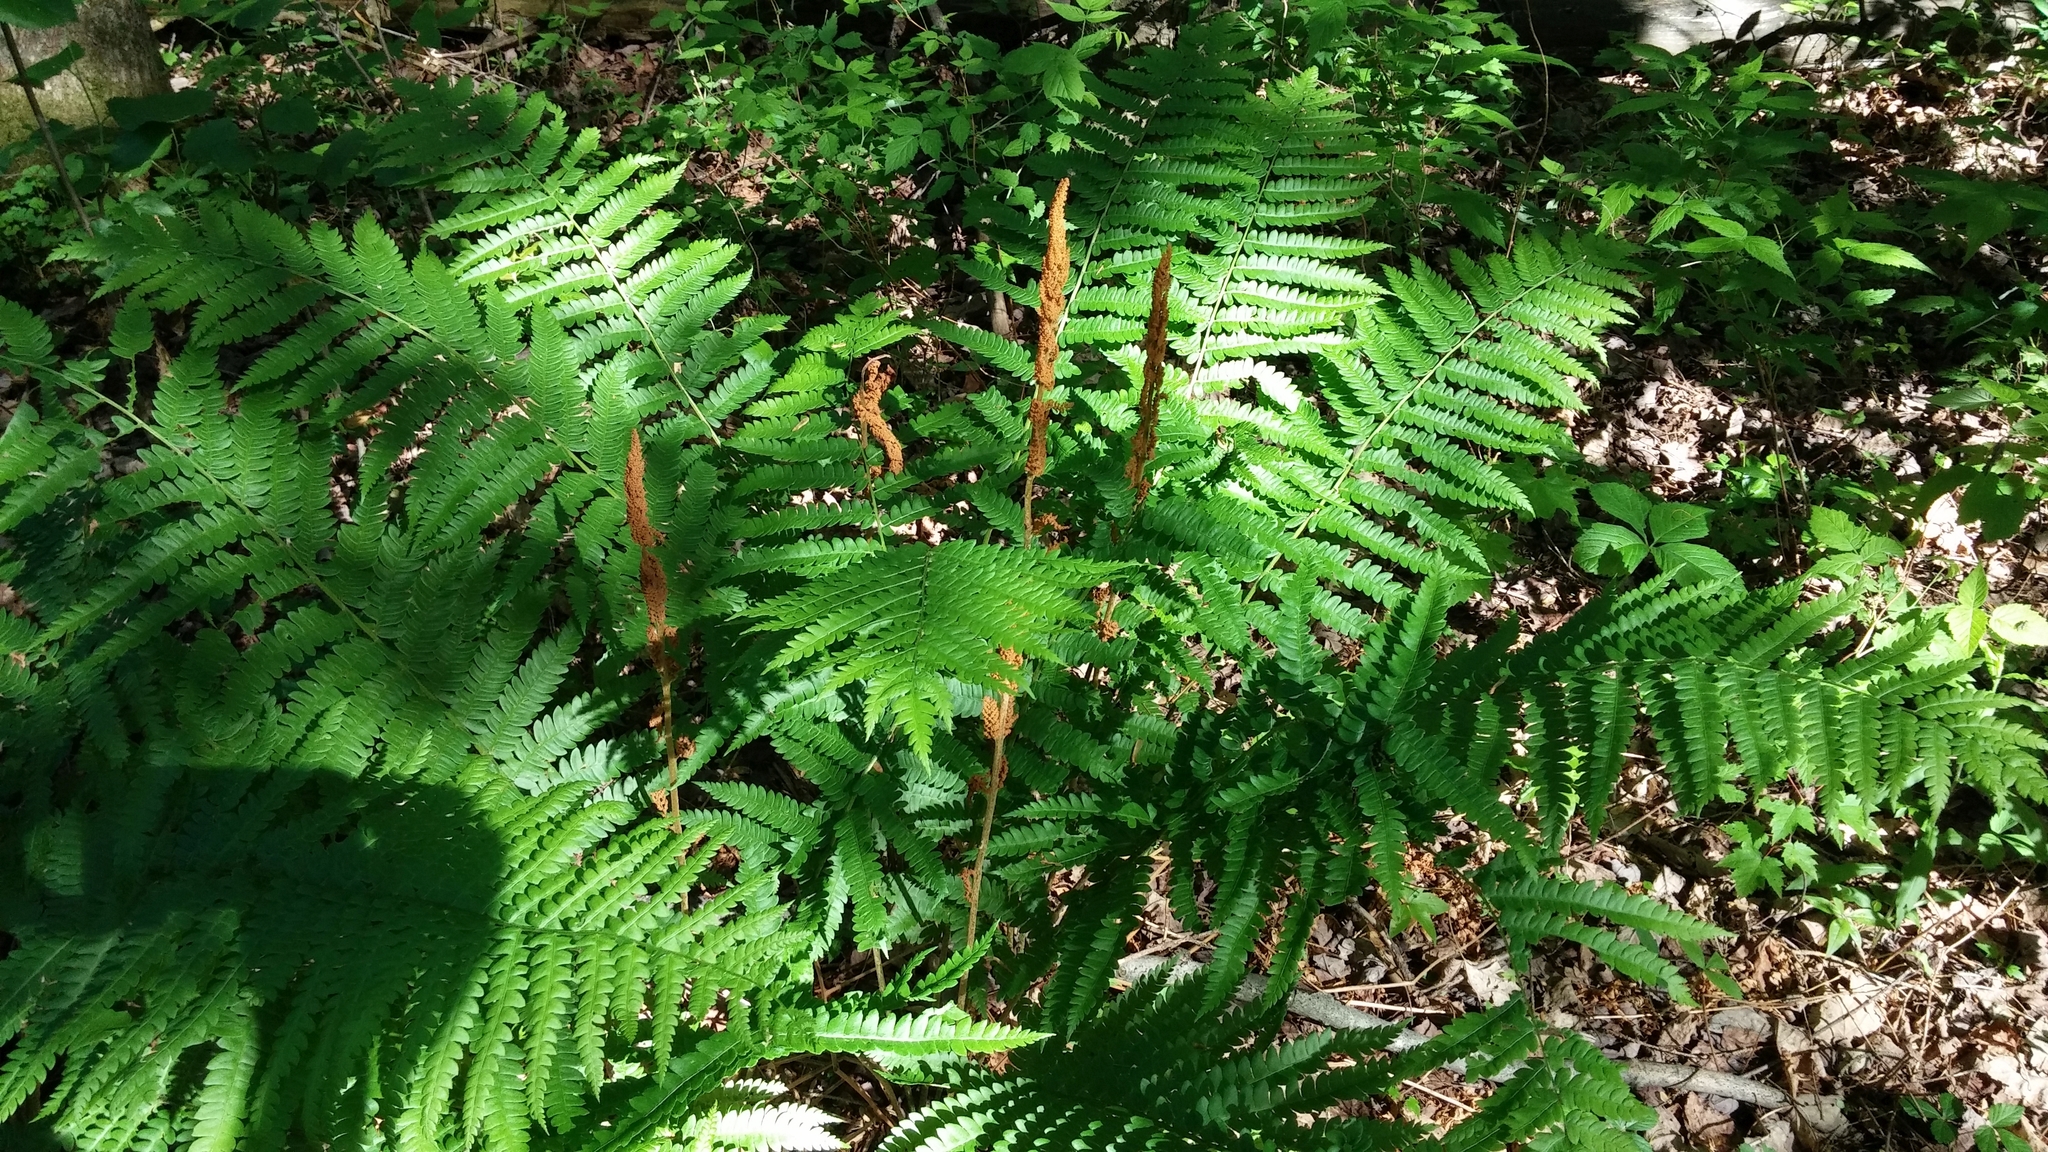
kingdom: Plantae
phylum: Tracheophyta
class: Polypodiopsida
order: Osmundales
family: Osmundaceae
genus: Osmundastrum
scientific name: Osmundastrum cinnamomeum
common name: Cinnamon fern
